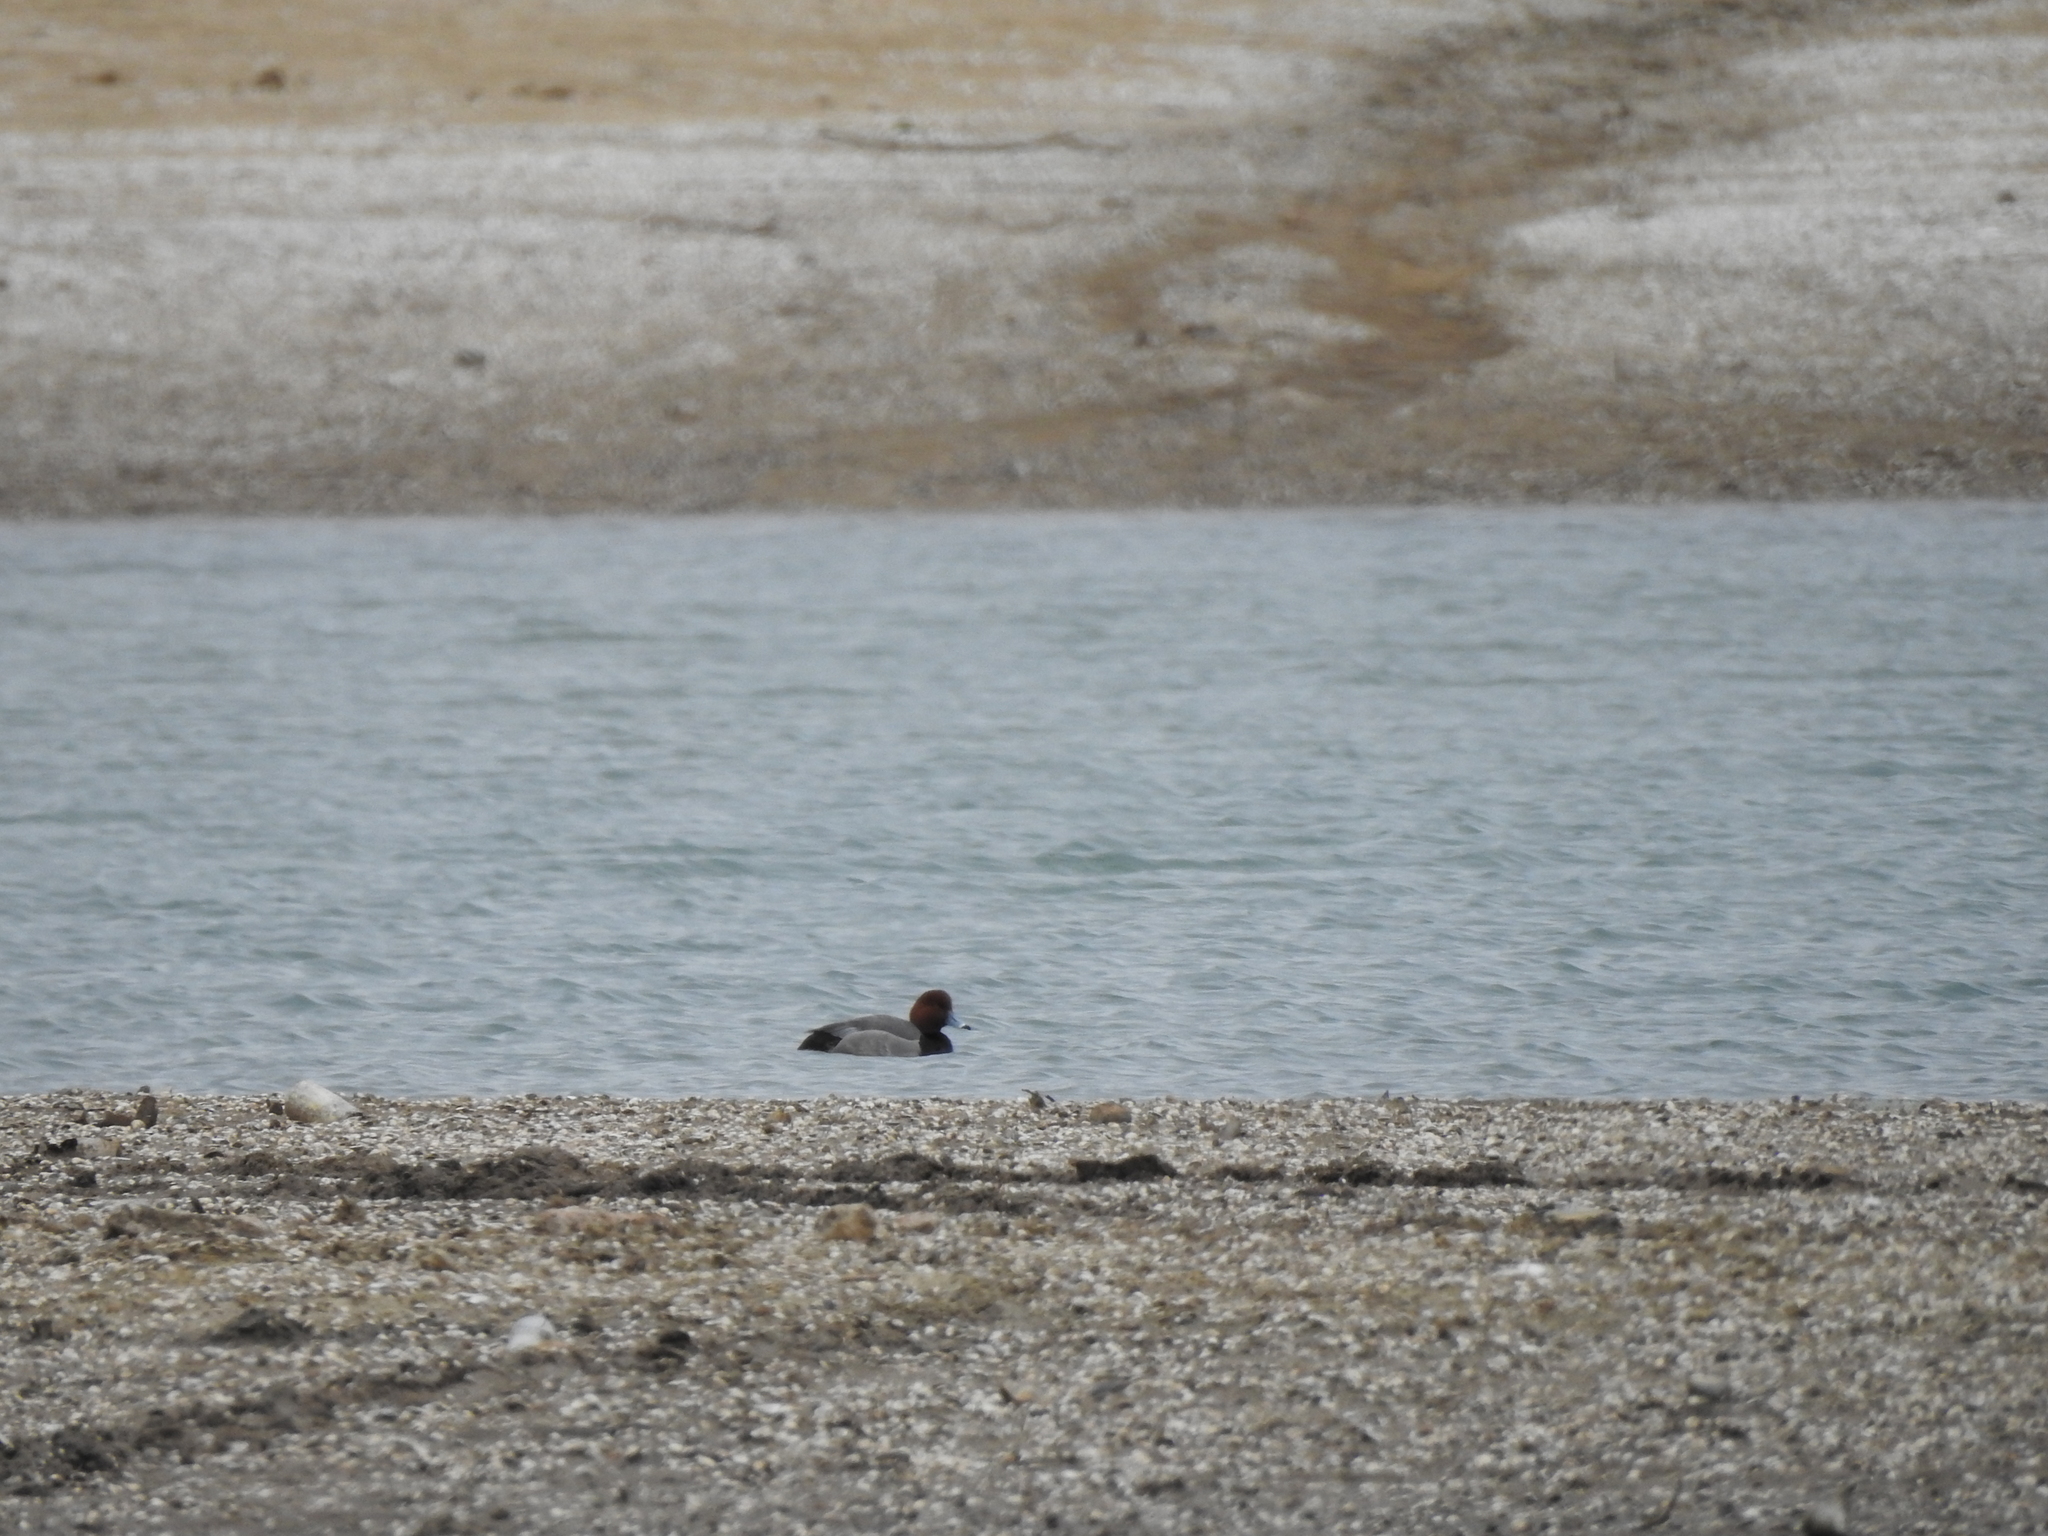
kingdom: Animalia
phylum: Chordata
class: Aves
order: Anseriformes
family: Anatidae
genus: Aythya
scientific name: Aythya americana
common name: Redhead
